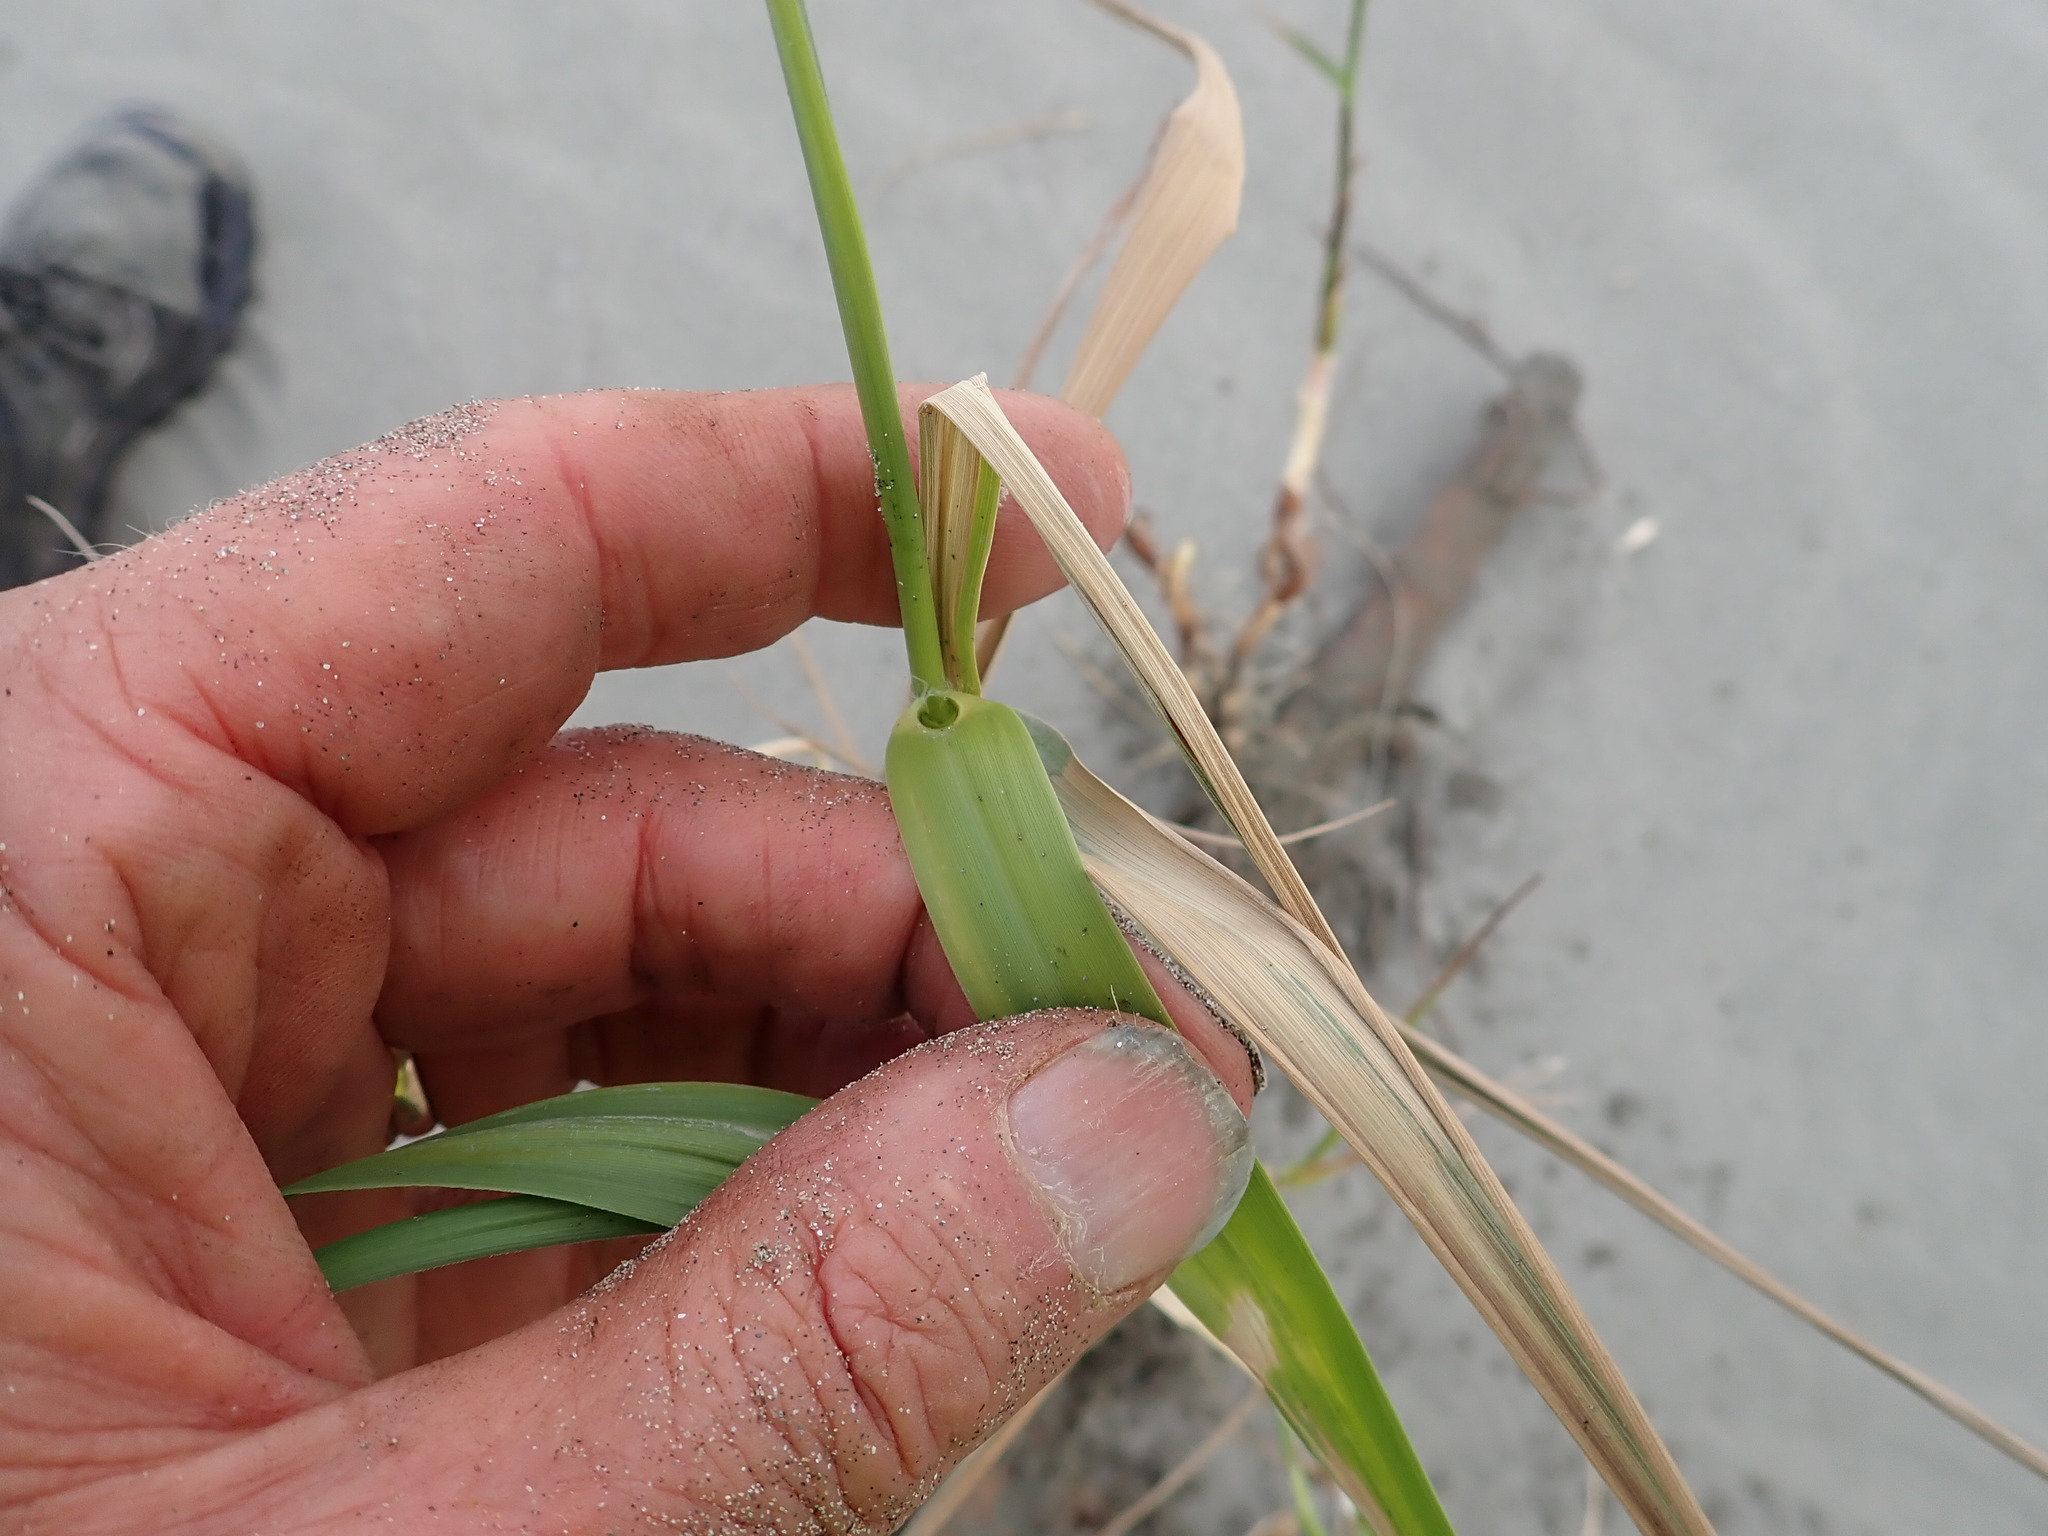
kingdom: Plantae
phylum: Tracheophyta
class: Liliopsida
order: Poales
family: Poaceae
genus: Phragmites
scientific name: Phragmites karka
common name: Tropical reed
